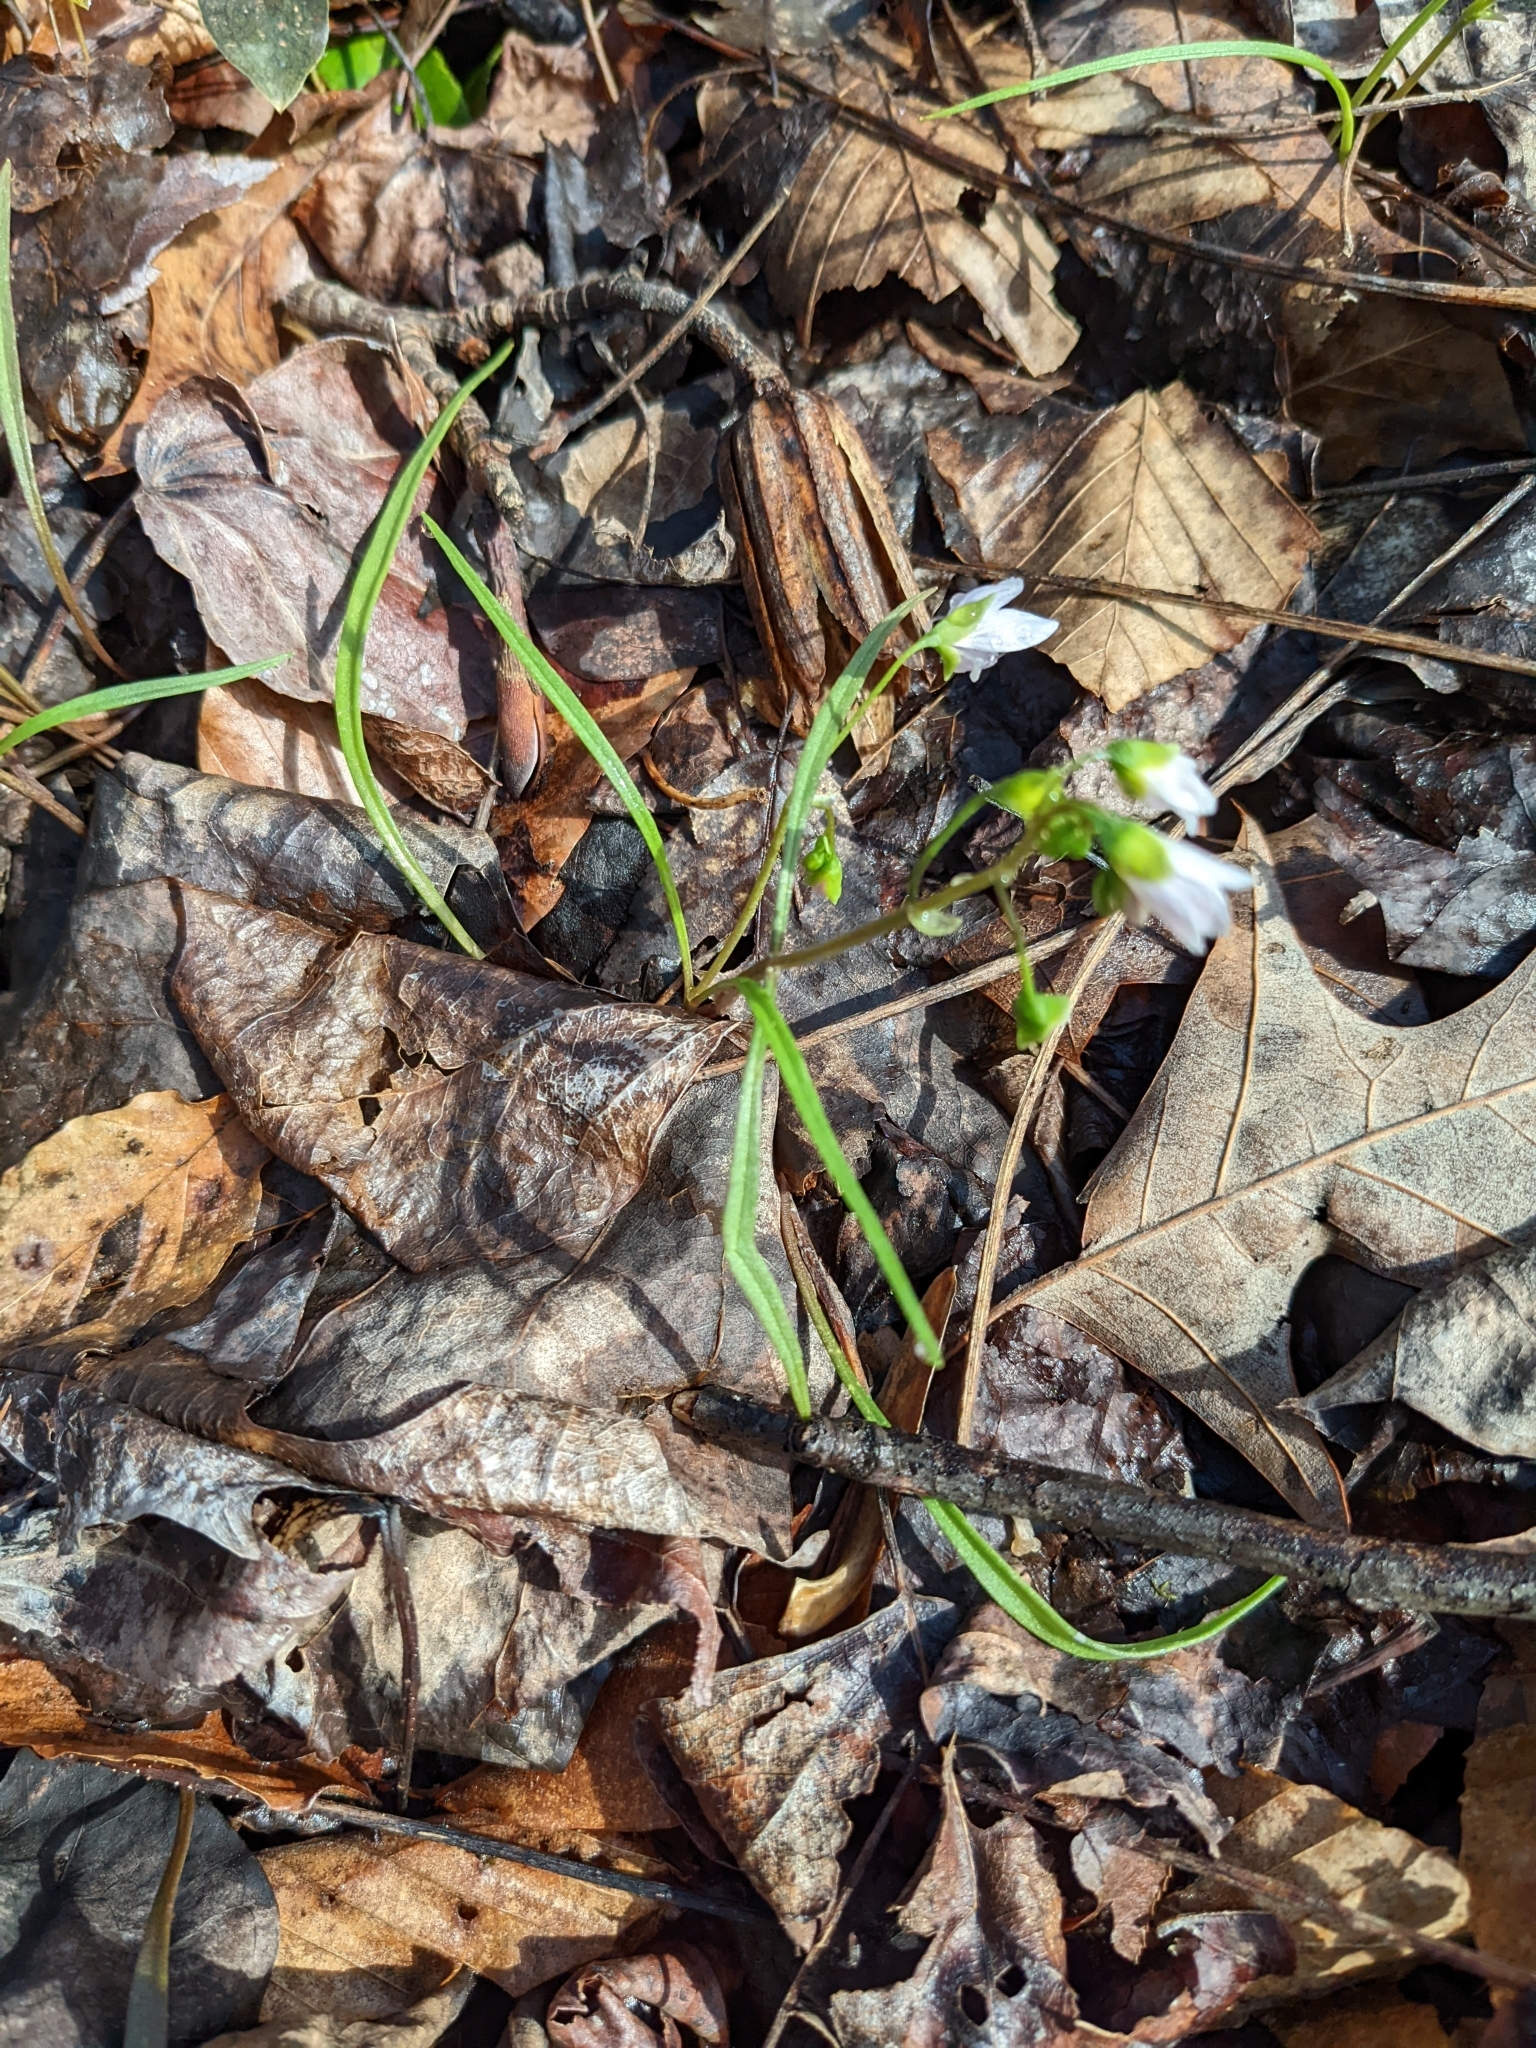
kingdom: Plantae
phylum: Tracheophyta
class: Magnoliopsida
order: Caryophyllales
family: Montiaceae
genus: Claytonia
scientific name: Claytonia virginica
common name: Virginia springbeauty
